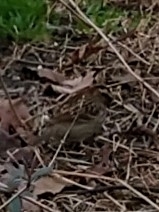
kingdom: Animalia
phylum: Chordata
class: Aves
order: Passeriformes
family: Passerellidae
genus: Zonotrichia
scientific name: Zonotrichia albicollis
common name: White-throated sparrow
